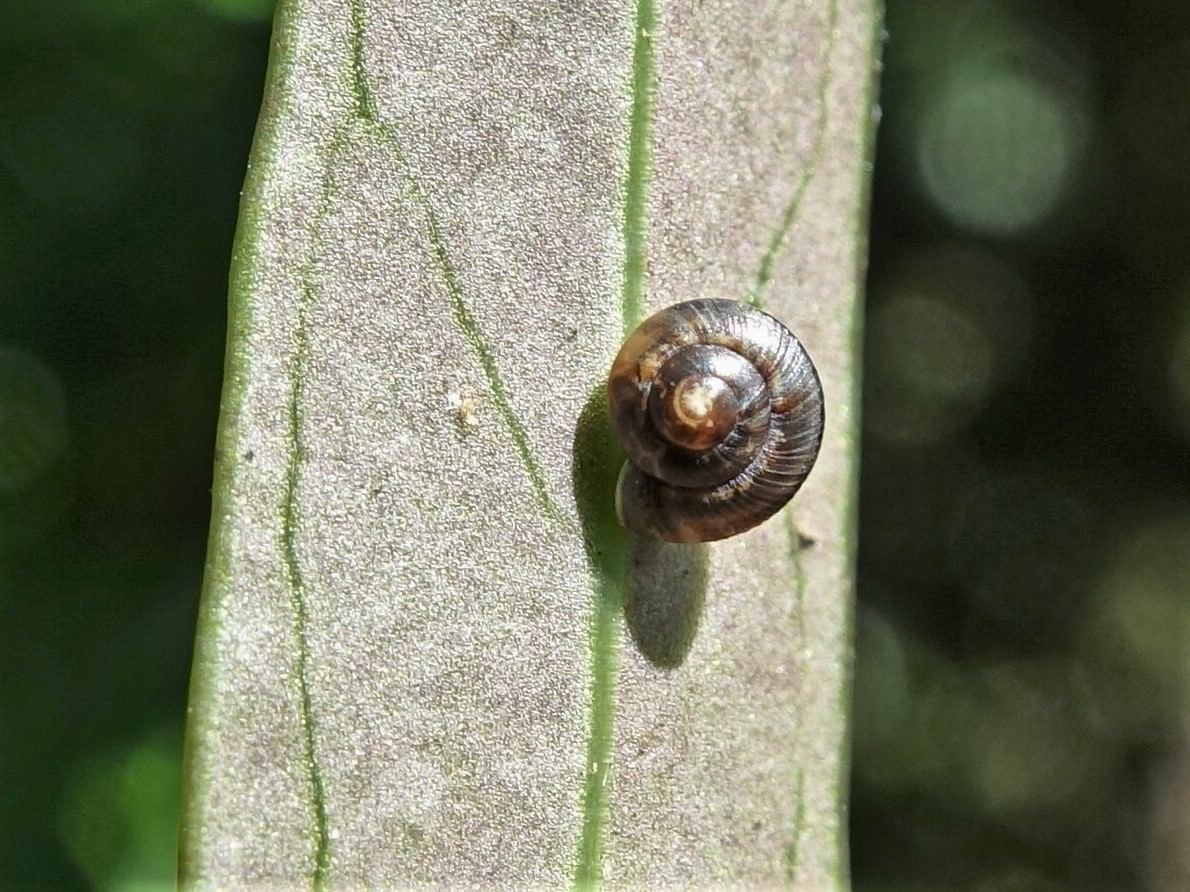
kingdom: Animalia
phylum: Mollusca
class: Gastropoda
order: Stylommatophora
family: Charopidae
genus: Serpho
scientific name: Serpho
